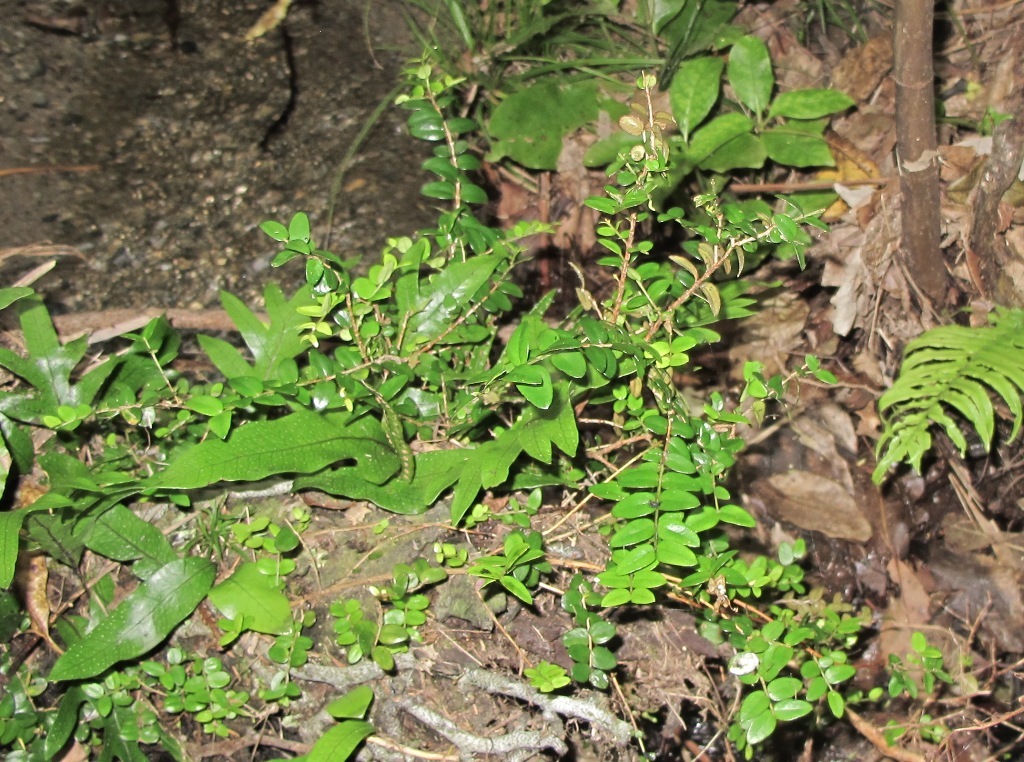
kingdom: Plantae
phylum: Tracheophyta
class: Magnoliopsida
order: Myrtales
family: Myrtaceae
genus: Metrosideros
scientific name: Metrosideros diffusa
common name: Small ratavine
